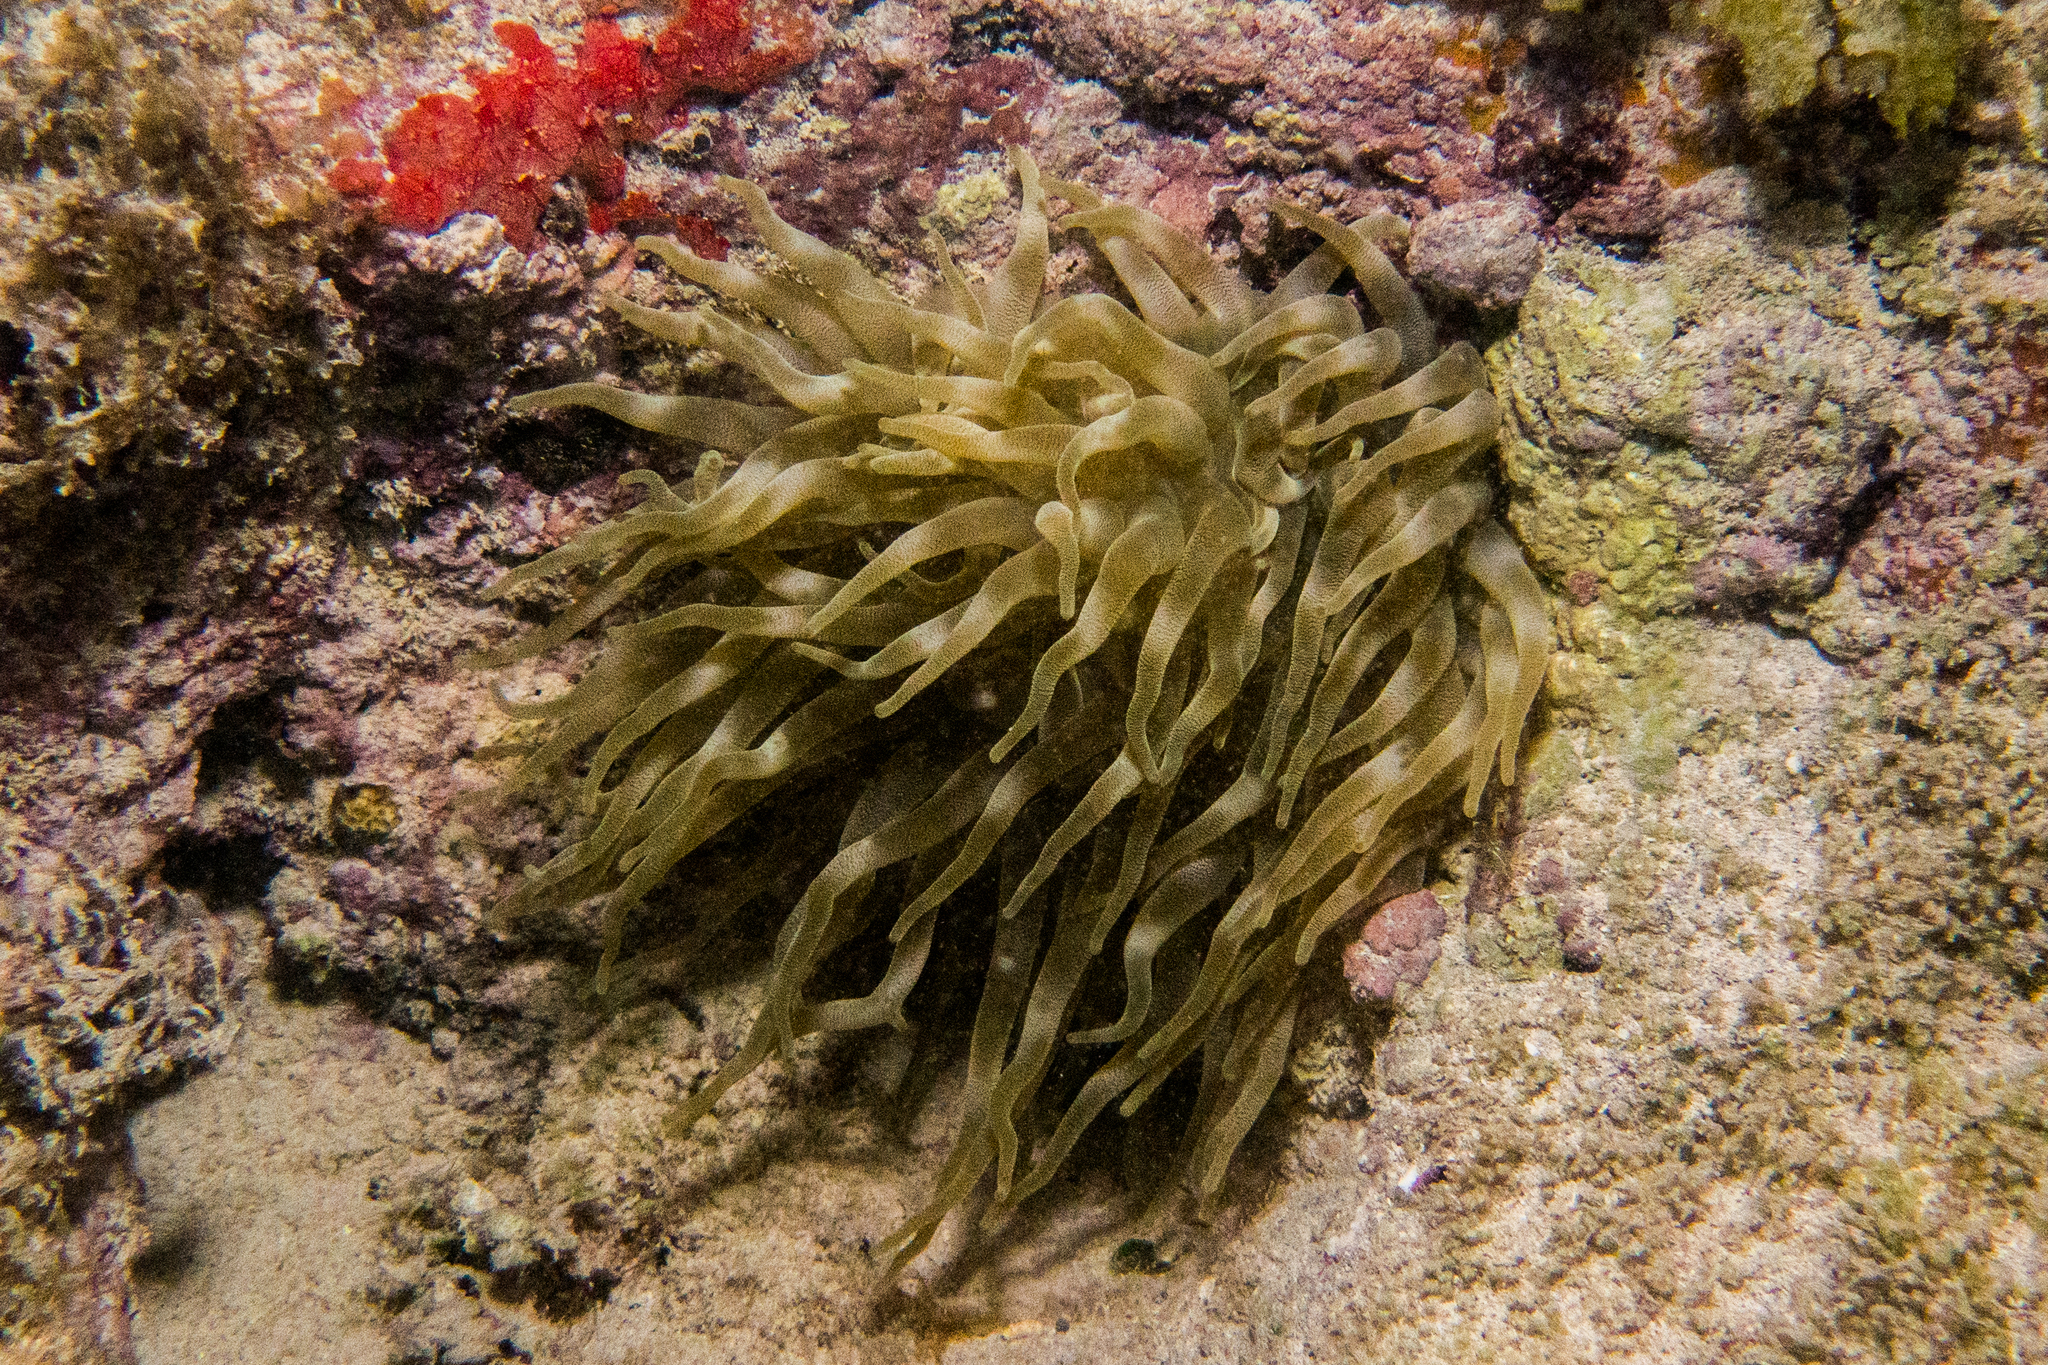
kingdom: Animalia
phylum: Cnidaria
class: Anthozoa
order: Actiniaria
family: Actiniidae
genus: Condylactis
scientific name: Condylactis gigantea
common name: Giant caribbean anemone
